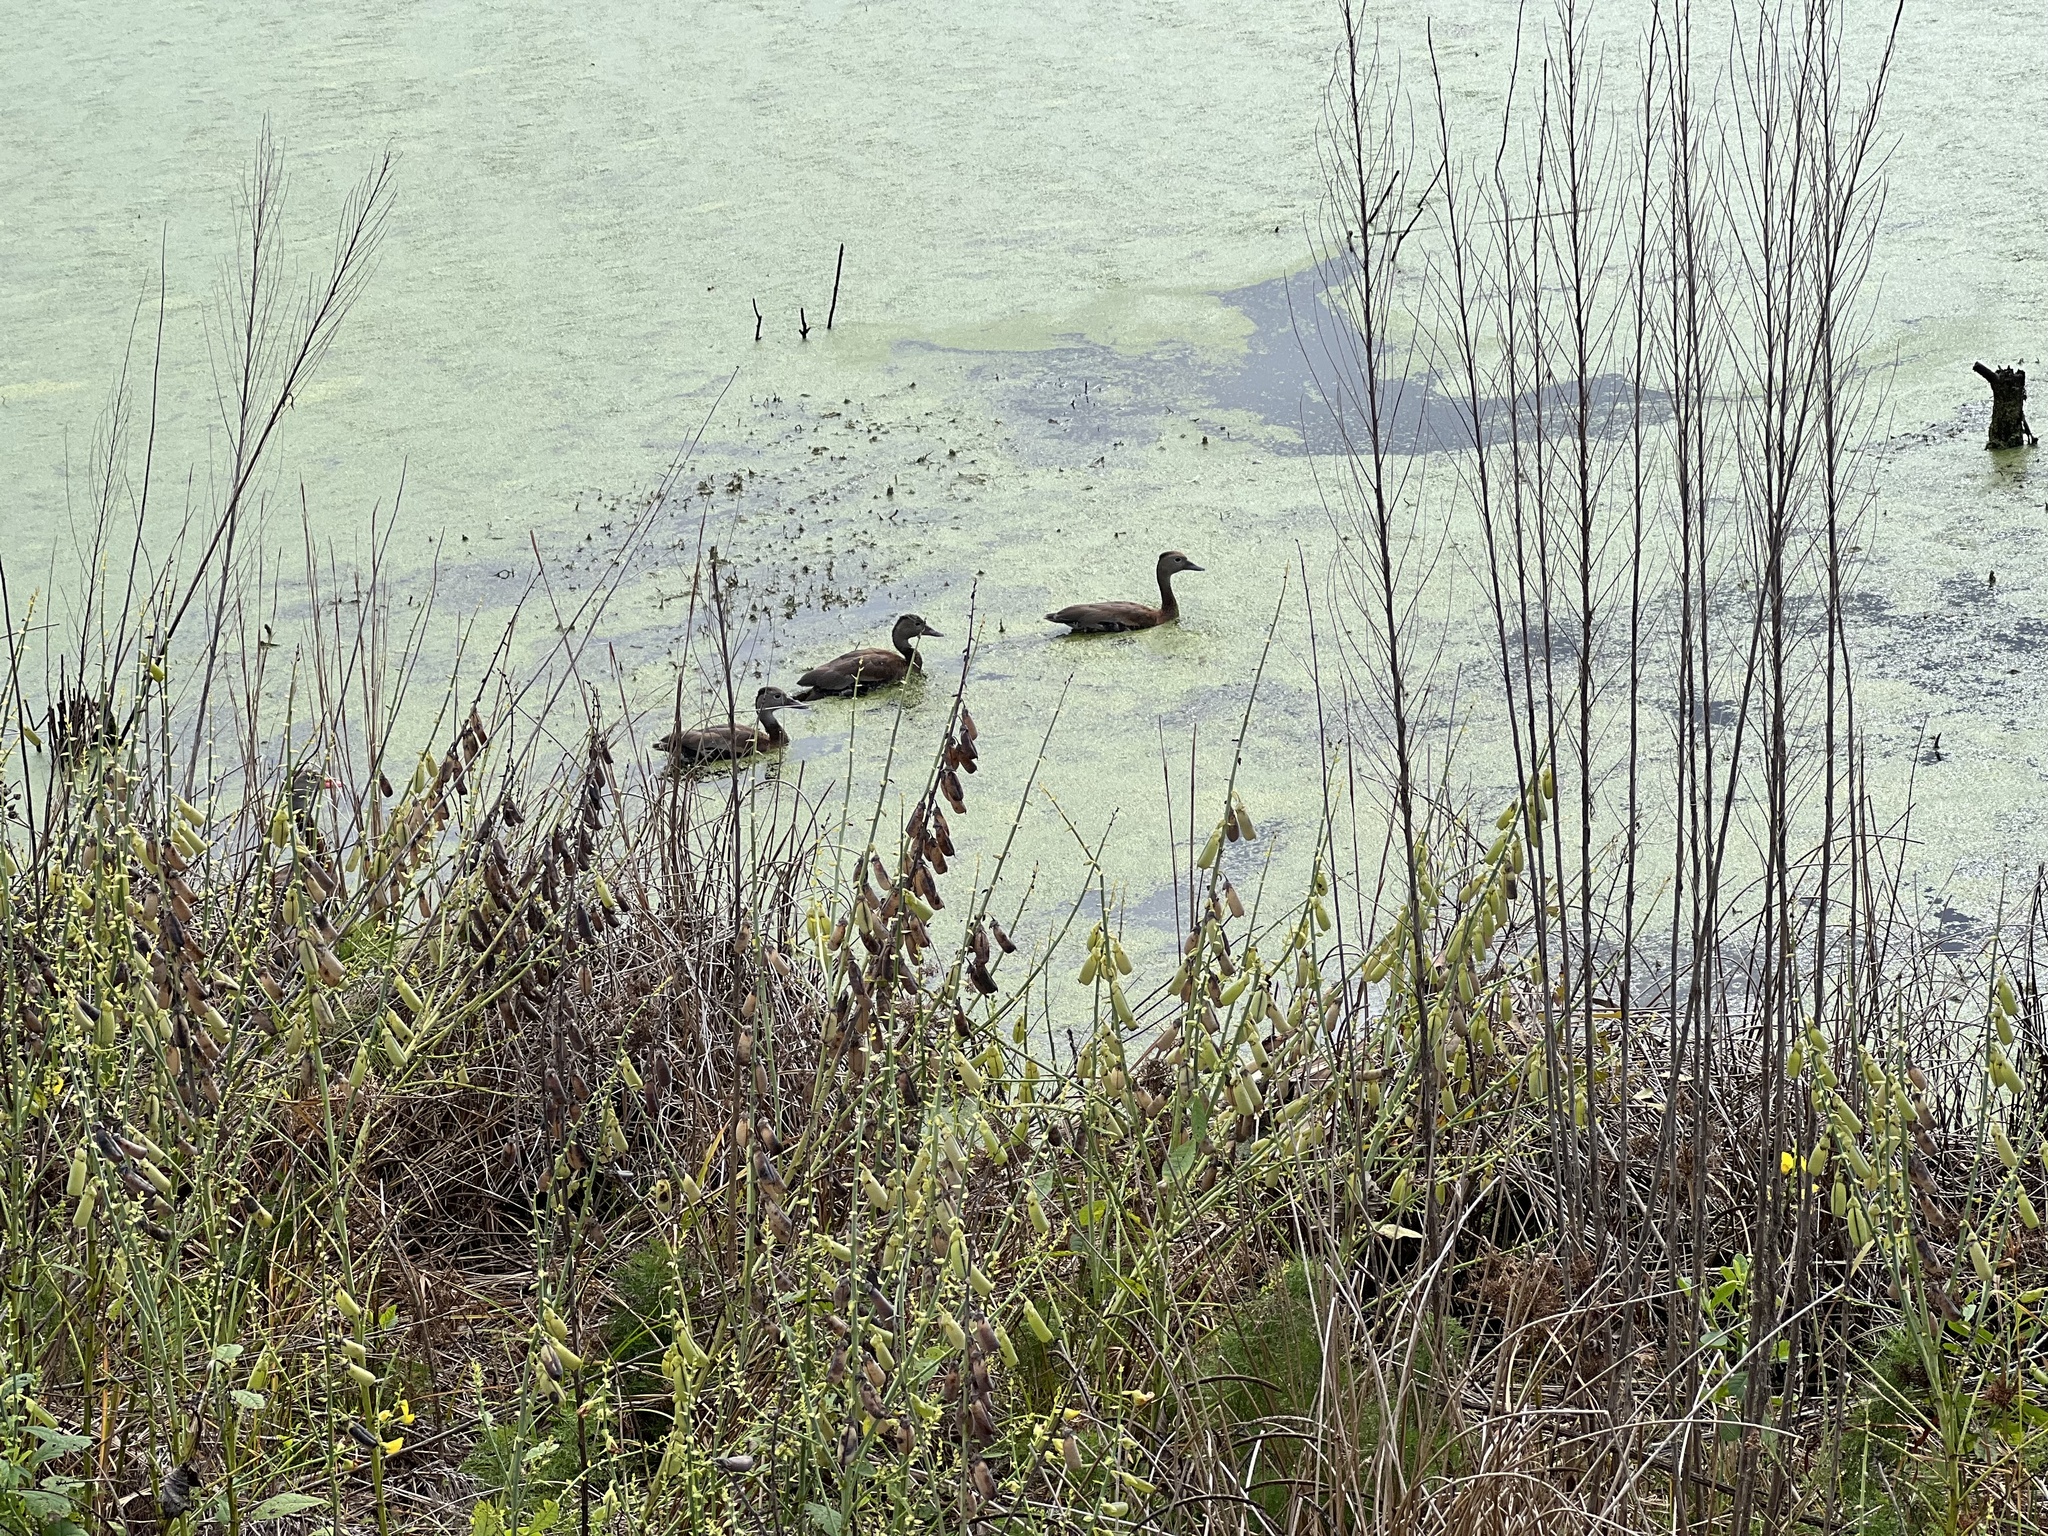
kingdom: Animalia
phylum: Chordata
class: Aves
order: Anseriformes
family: Anatidae
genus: Dendrocygna
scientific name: Dendrocygna autumnalis
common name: Black-bellied whistling duck
